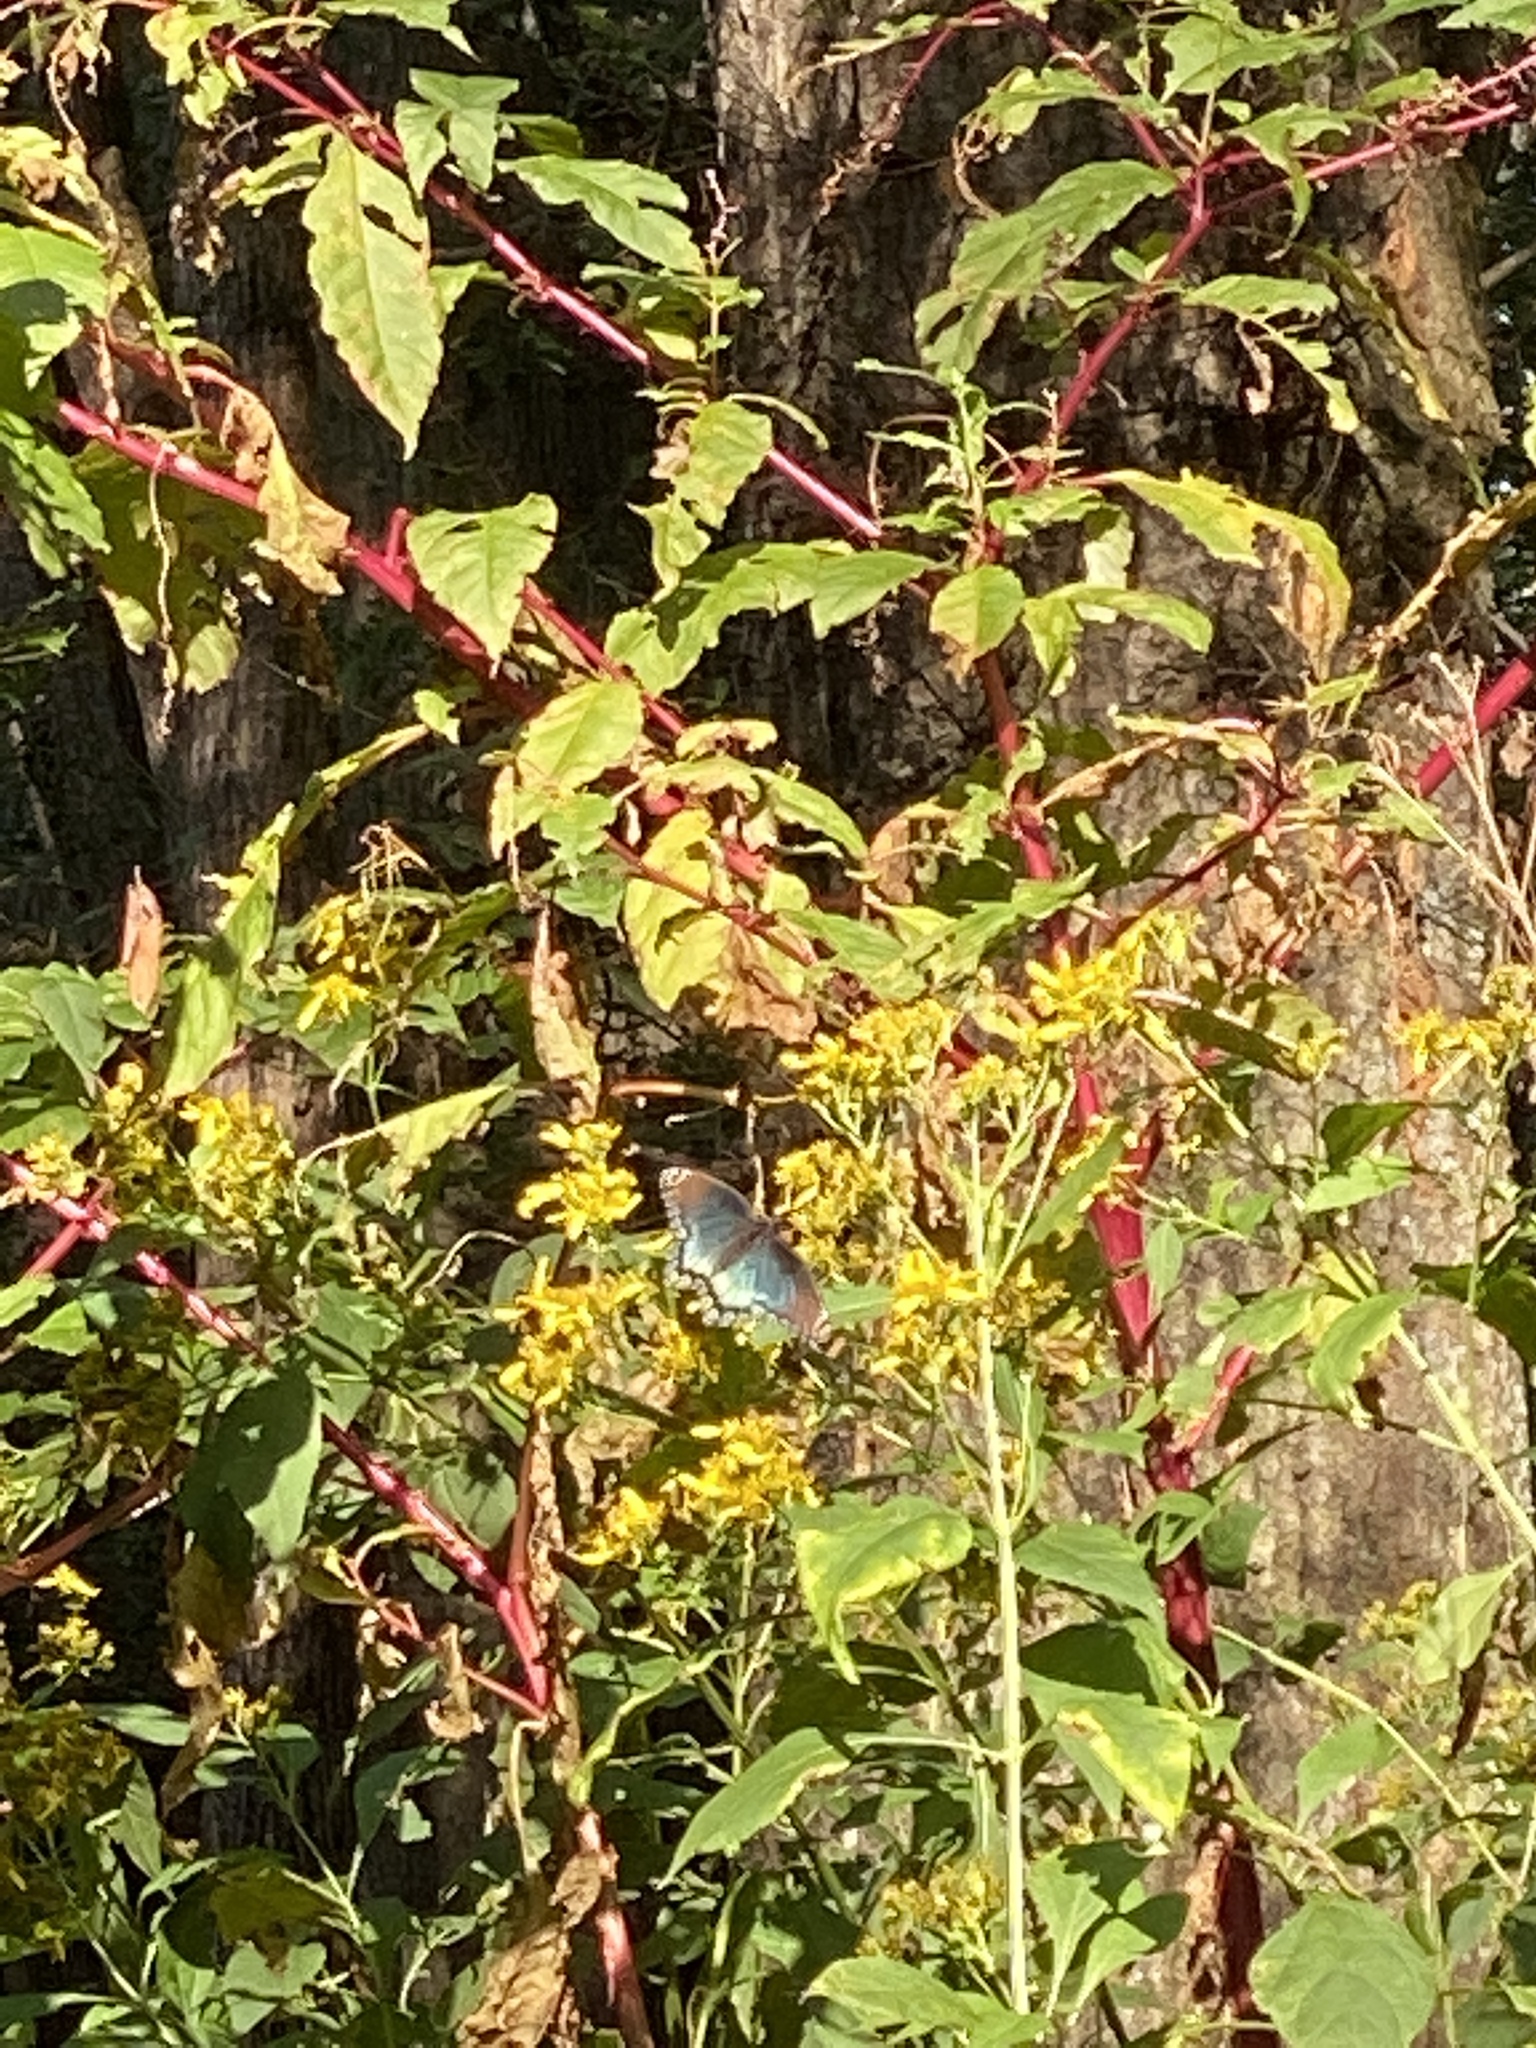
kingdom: Animalia
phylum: Arthropoda
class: Insecta
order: Lepidoptera
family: Nymphalidae
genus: Limenitis
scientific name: Limenitis astyanax
